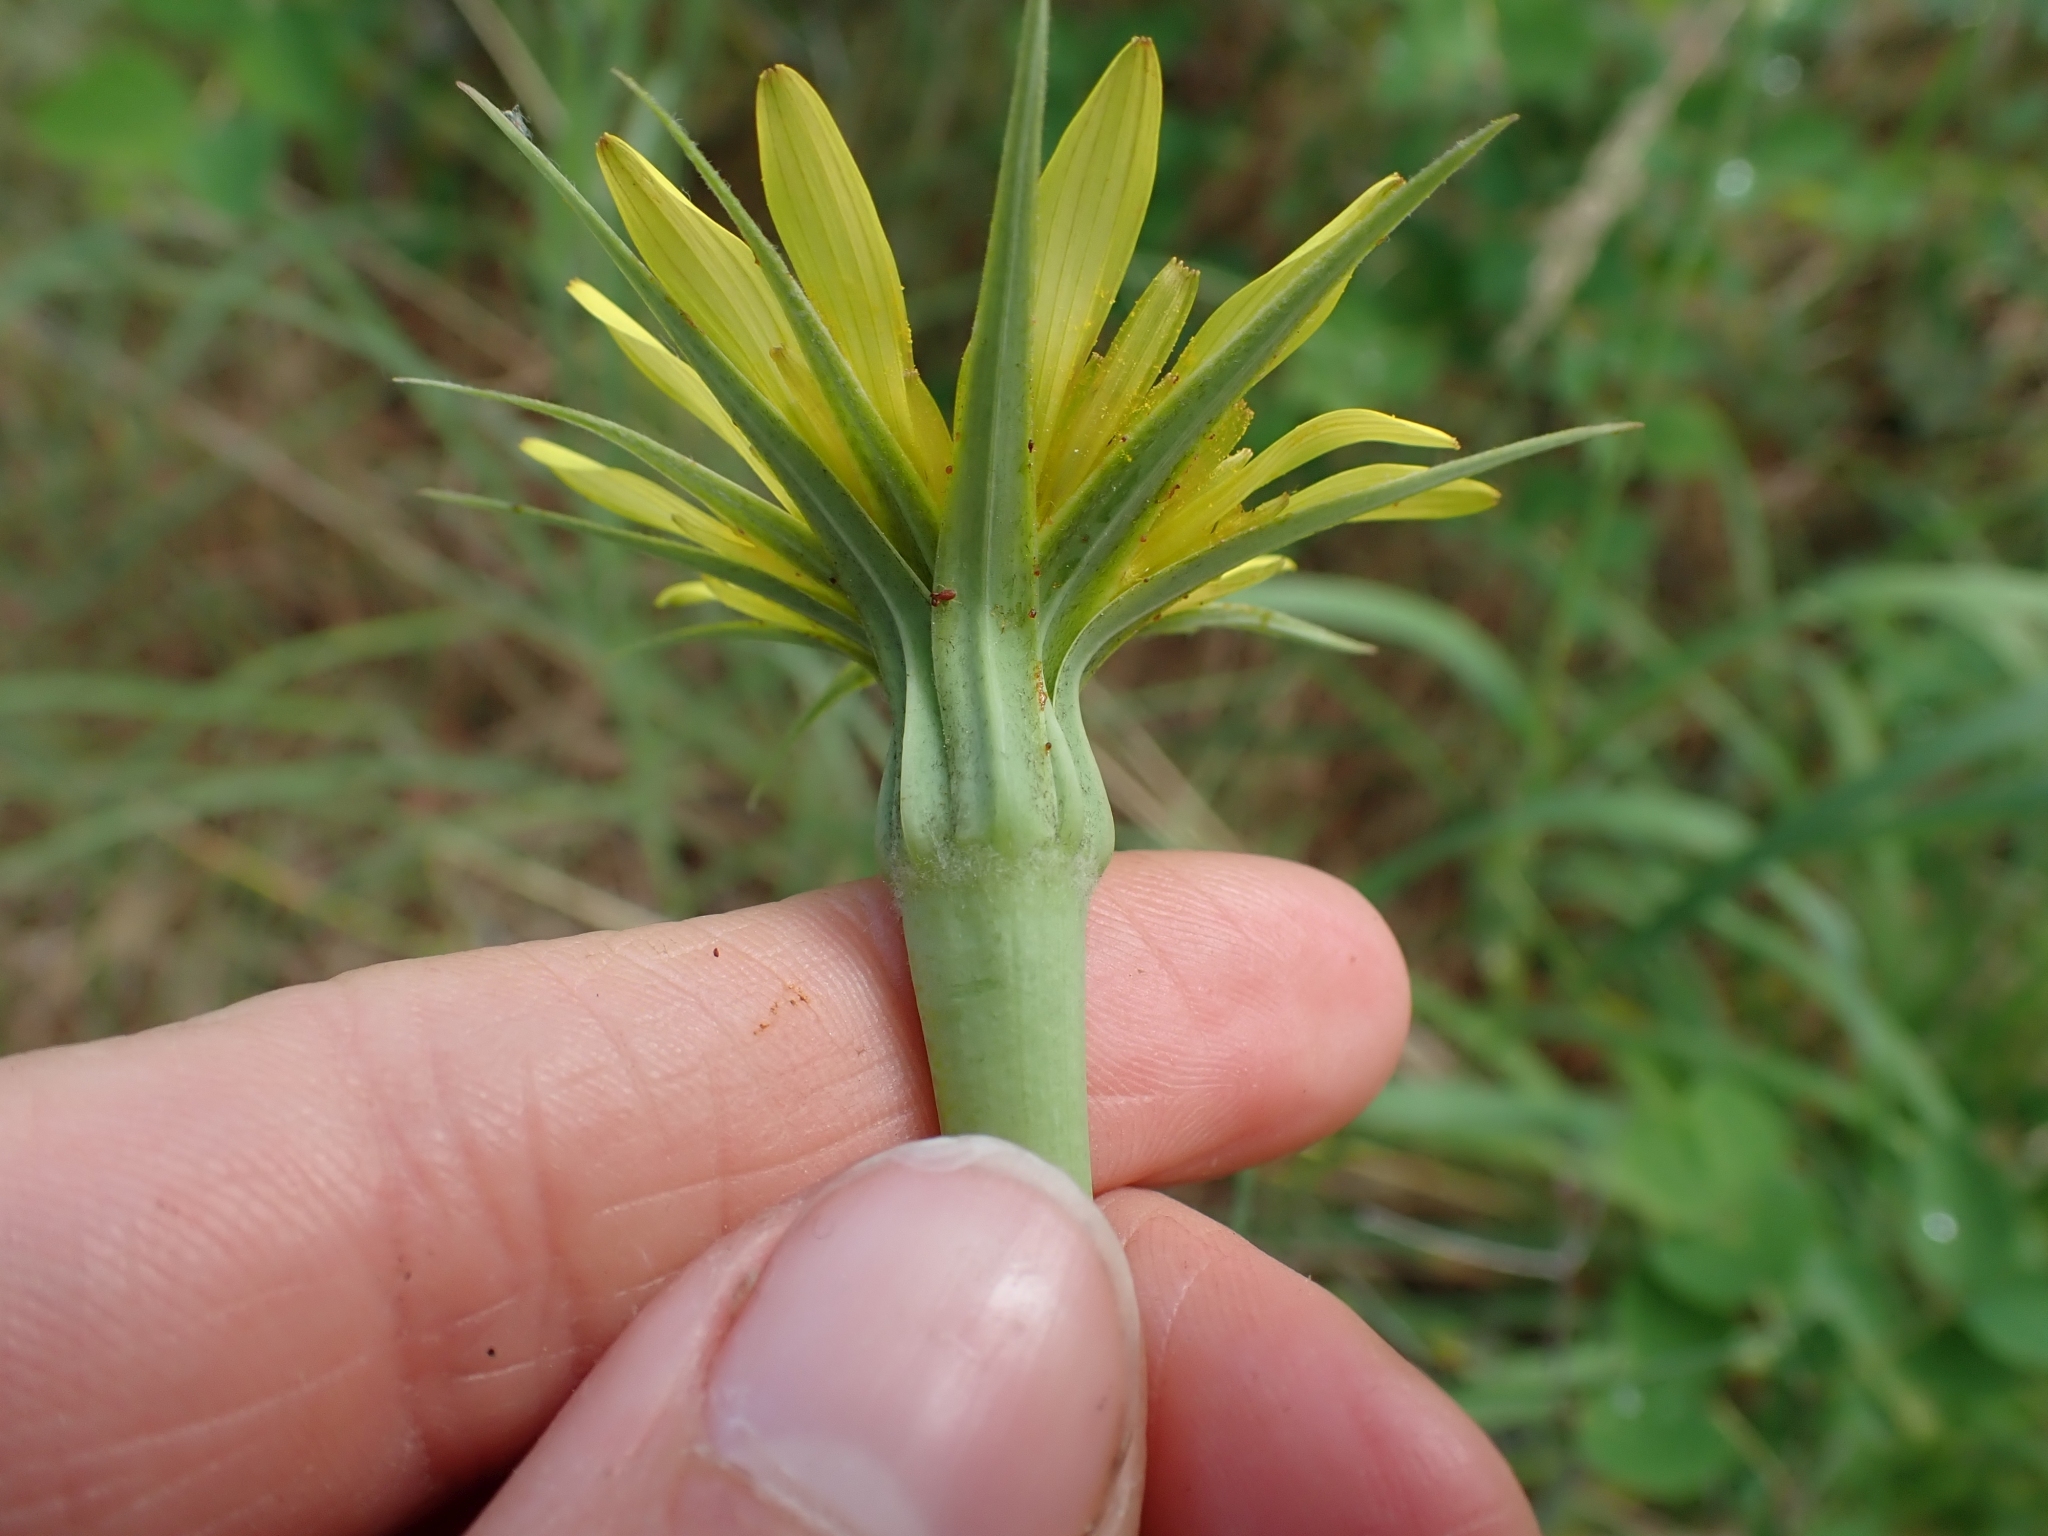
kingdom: Plantae
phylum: Tracheophyta
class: Magnoliopsida
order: Asterales
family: Asteraceae
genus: Tragopogon
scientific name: Tragopogon dubius
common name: Yellow salsify
